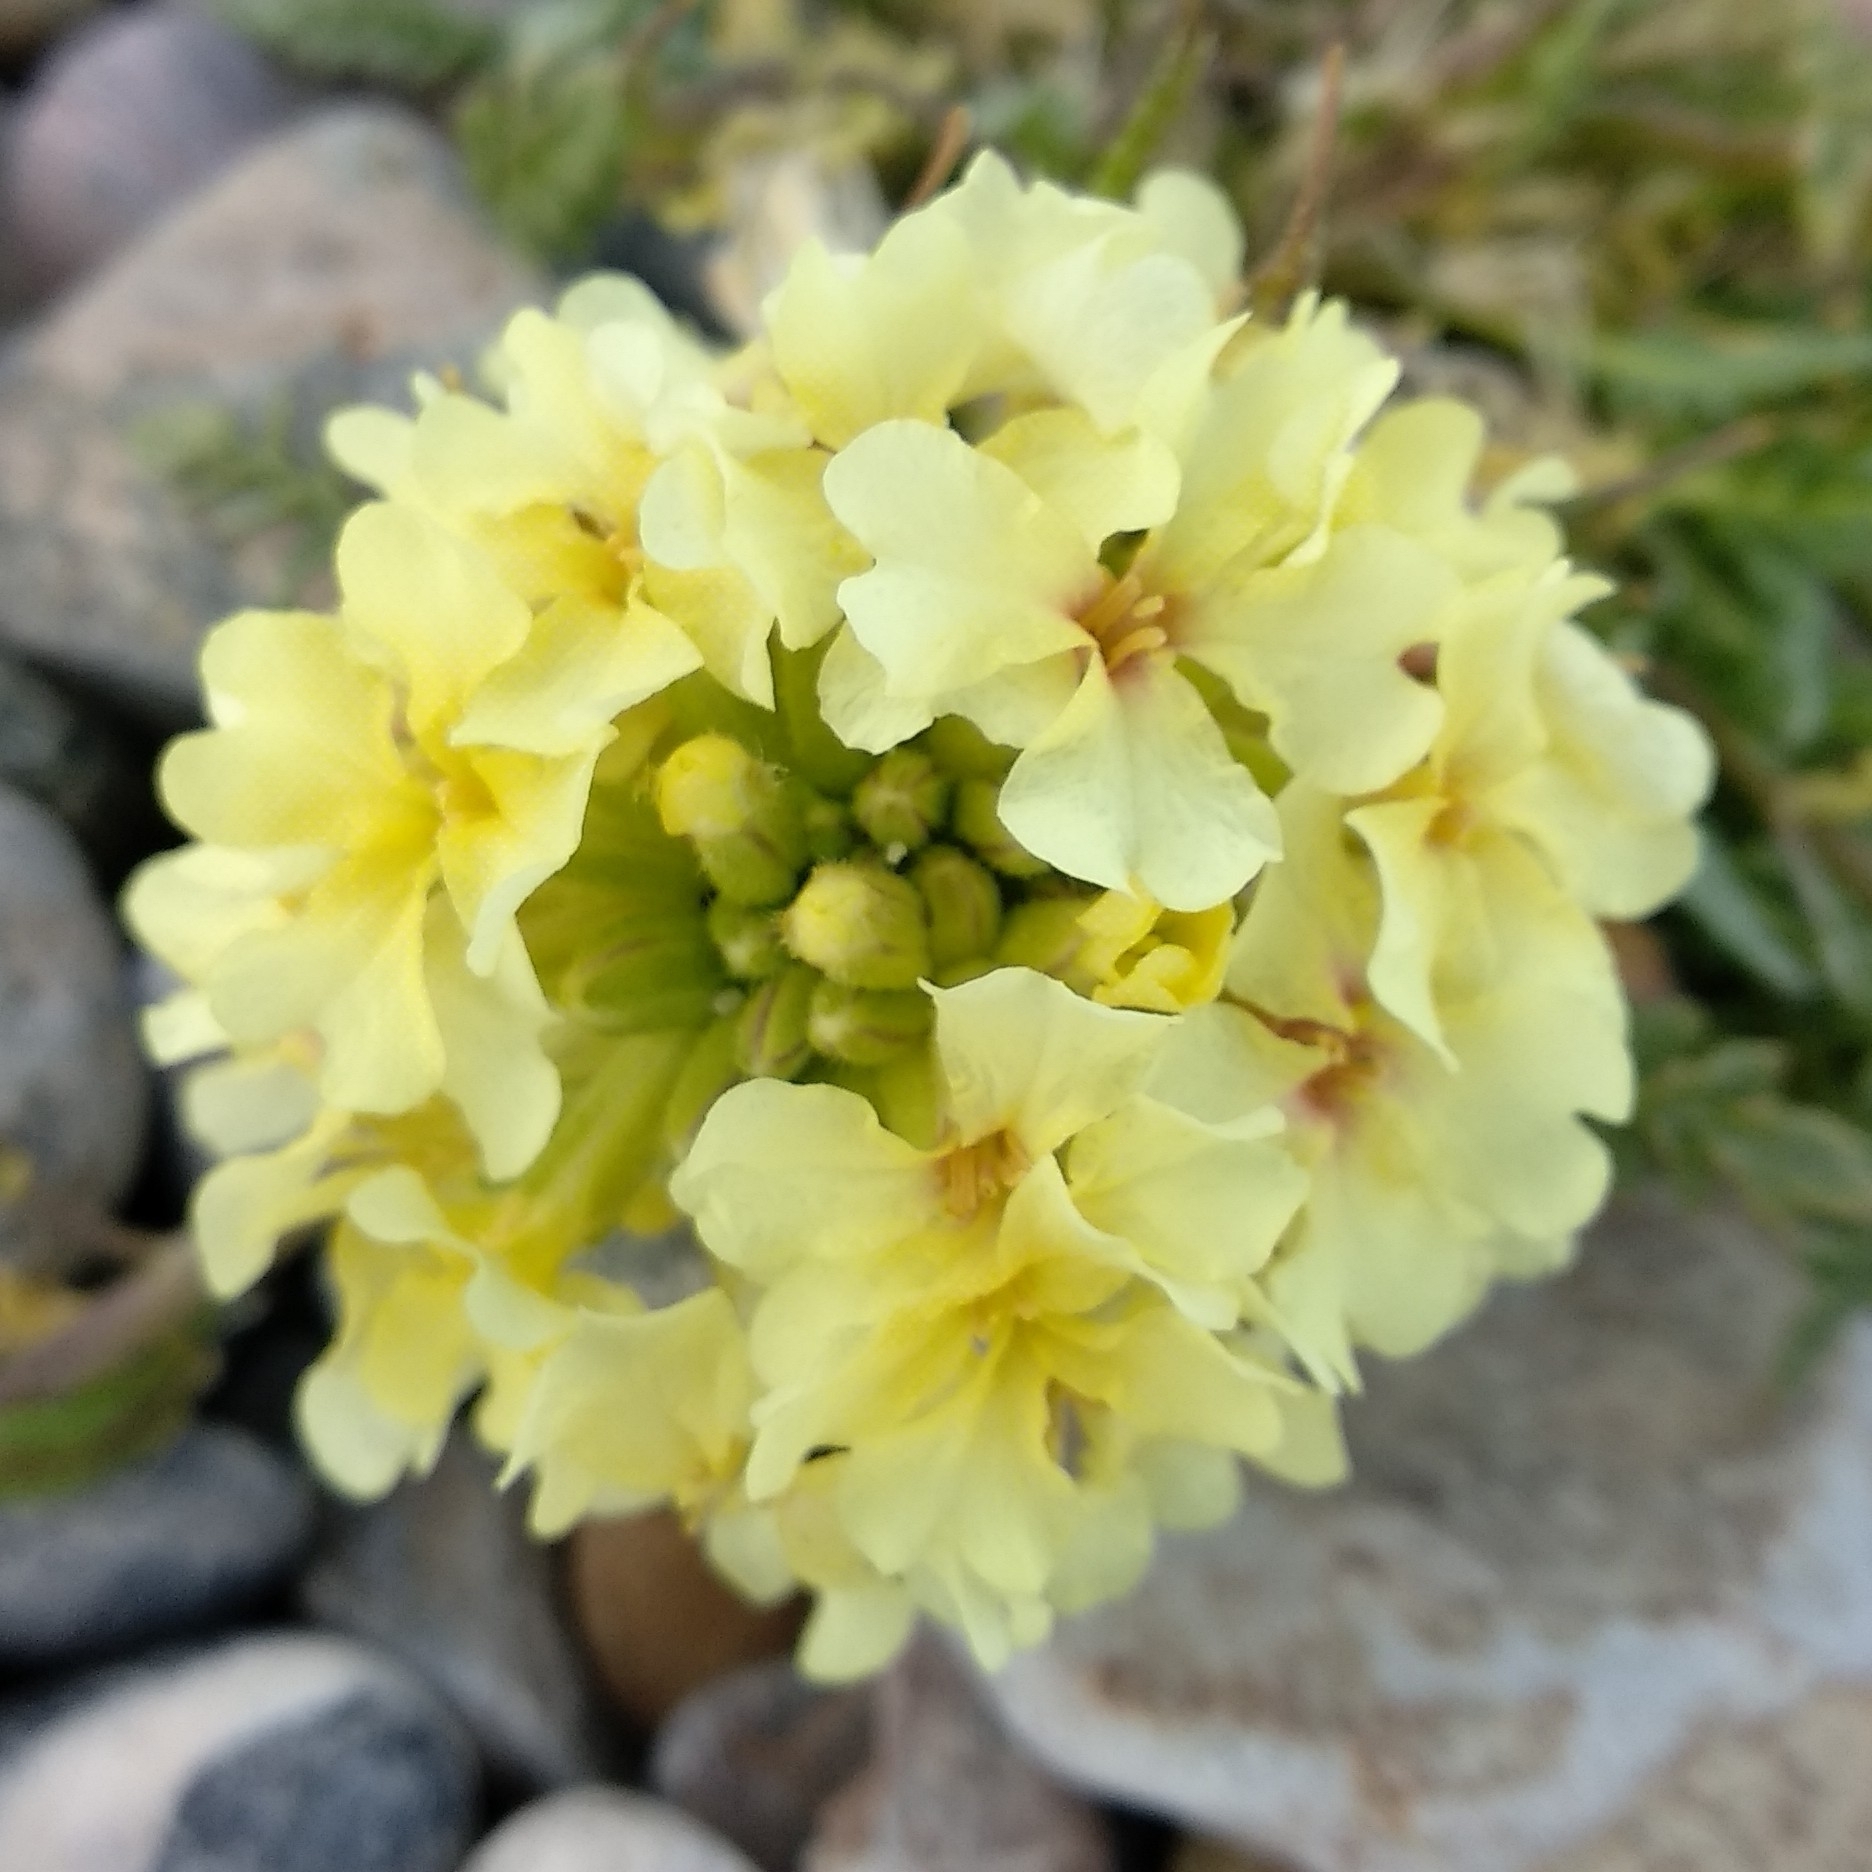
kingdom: Plantae
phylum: Tracheophyta
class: Magnoliopsida
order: Brassicales
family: Brassicaceae
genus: Chorispora
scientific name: Chorispora macropoda
